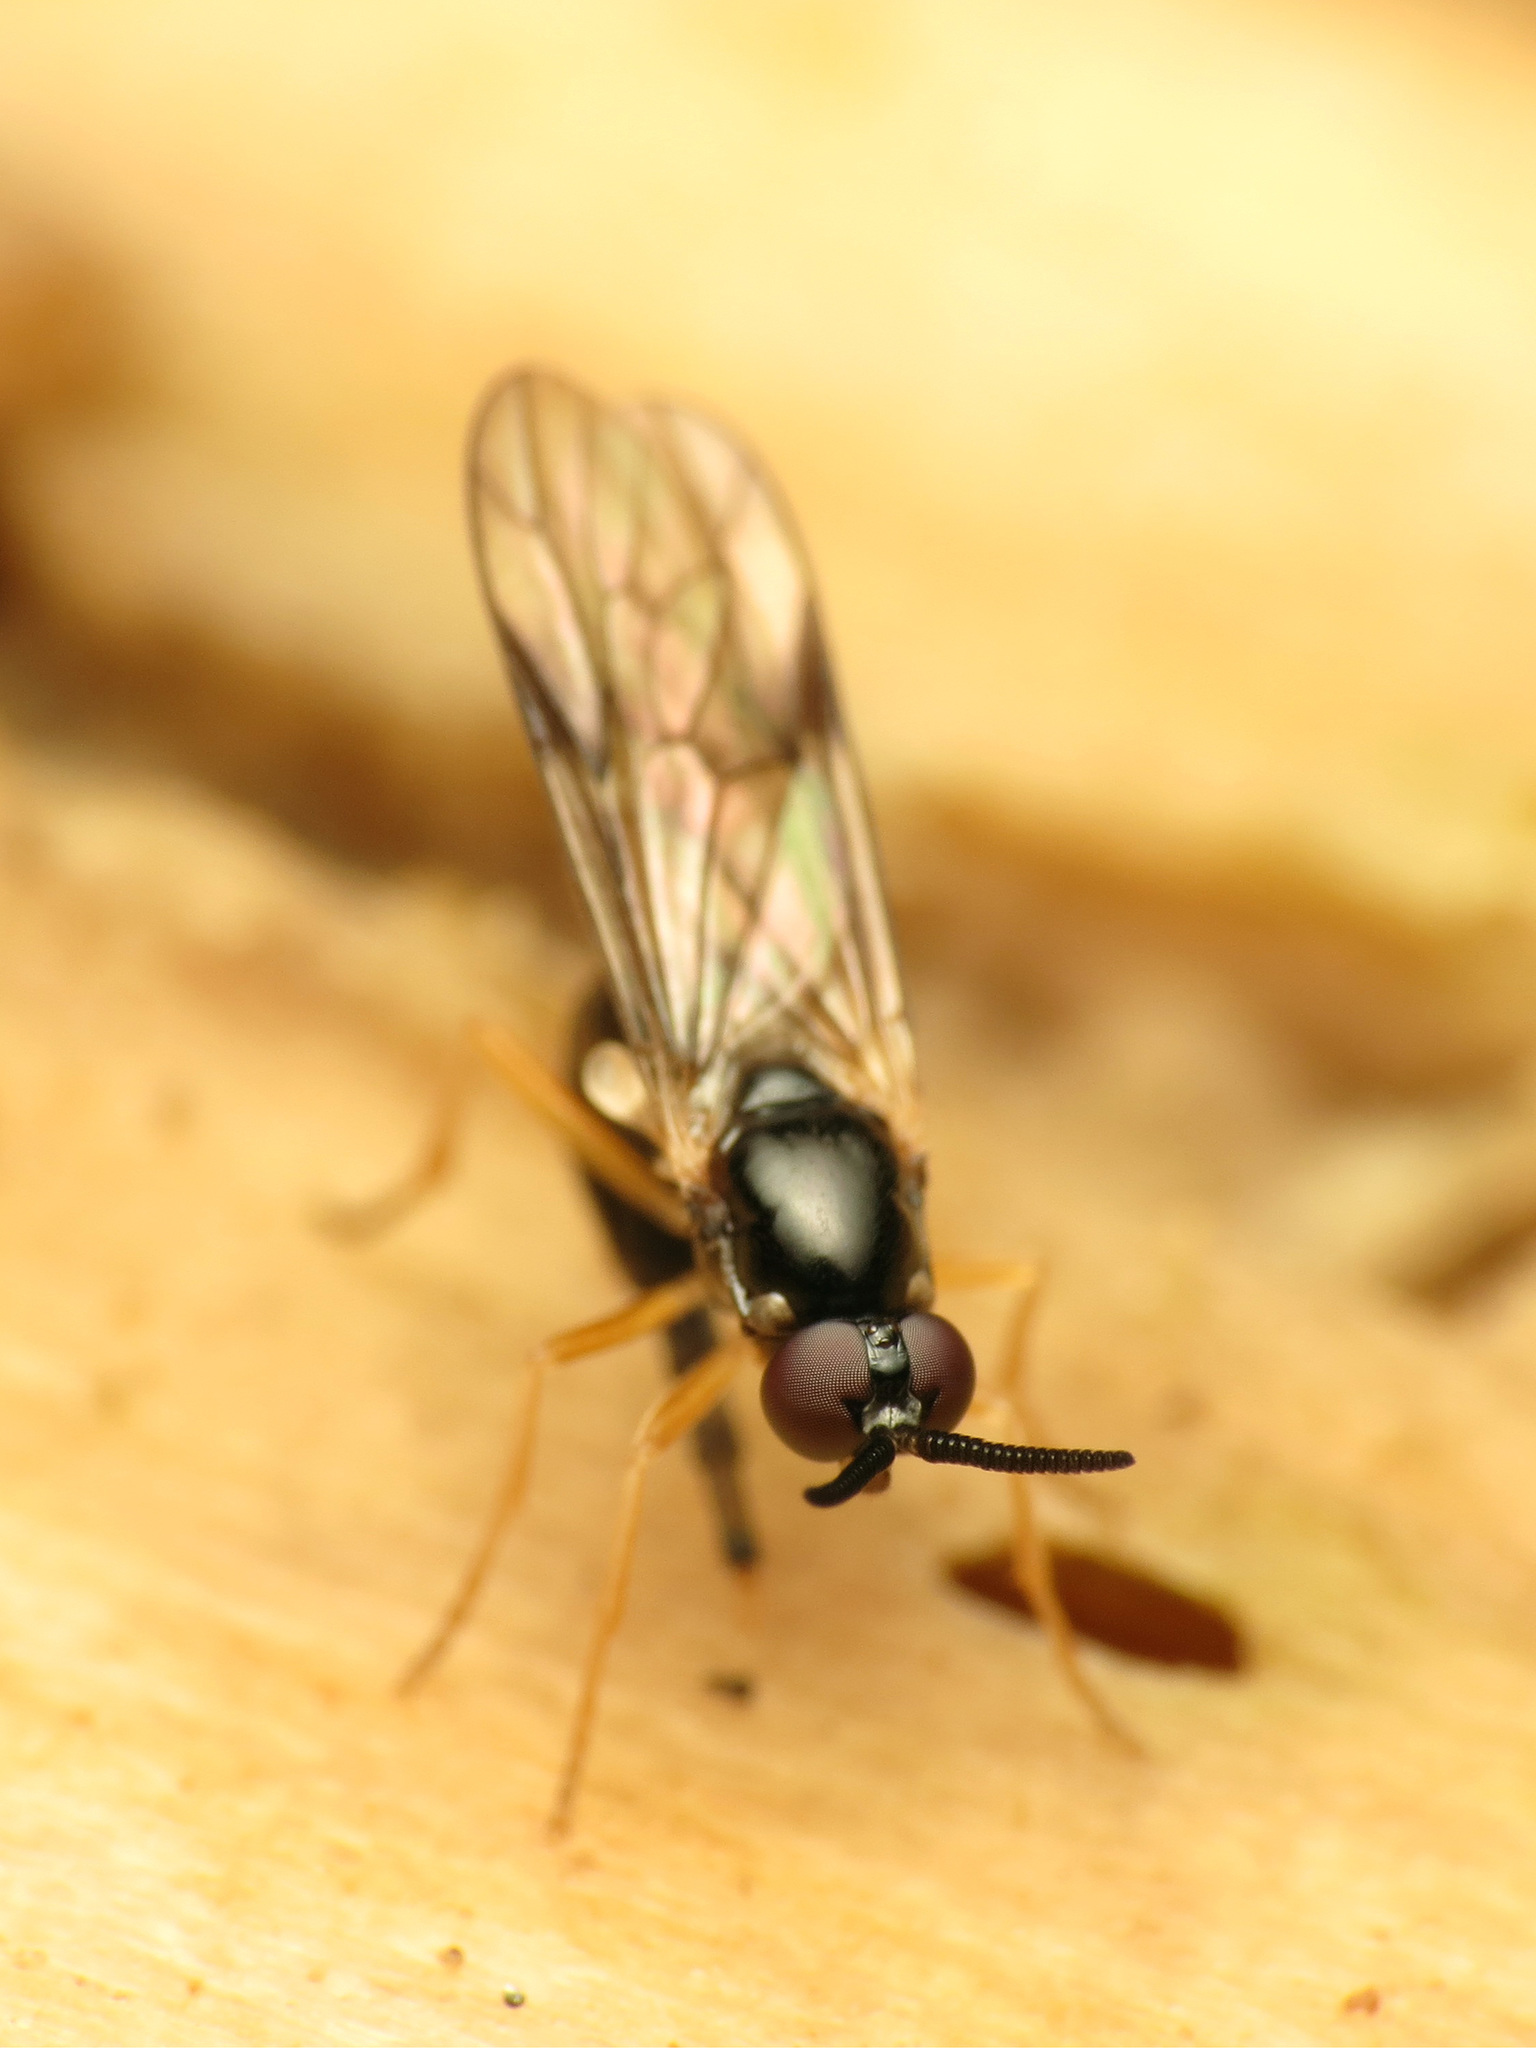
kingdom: Animalia
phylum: Arthropoda
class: Insecta
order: Diptera
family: Xylophagidae
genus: Rachicerus
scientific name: Rachicerus nitidus
